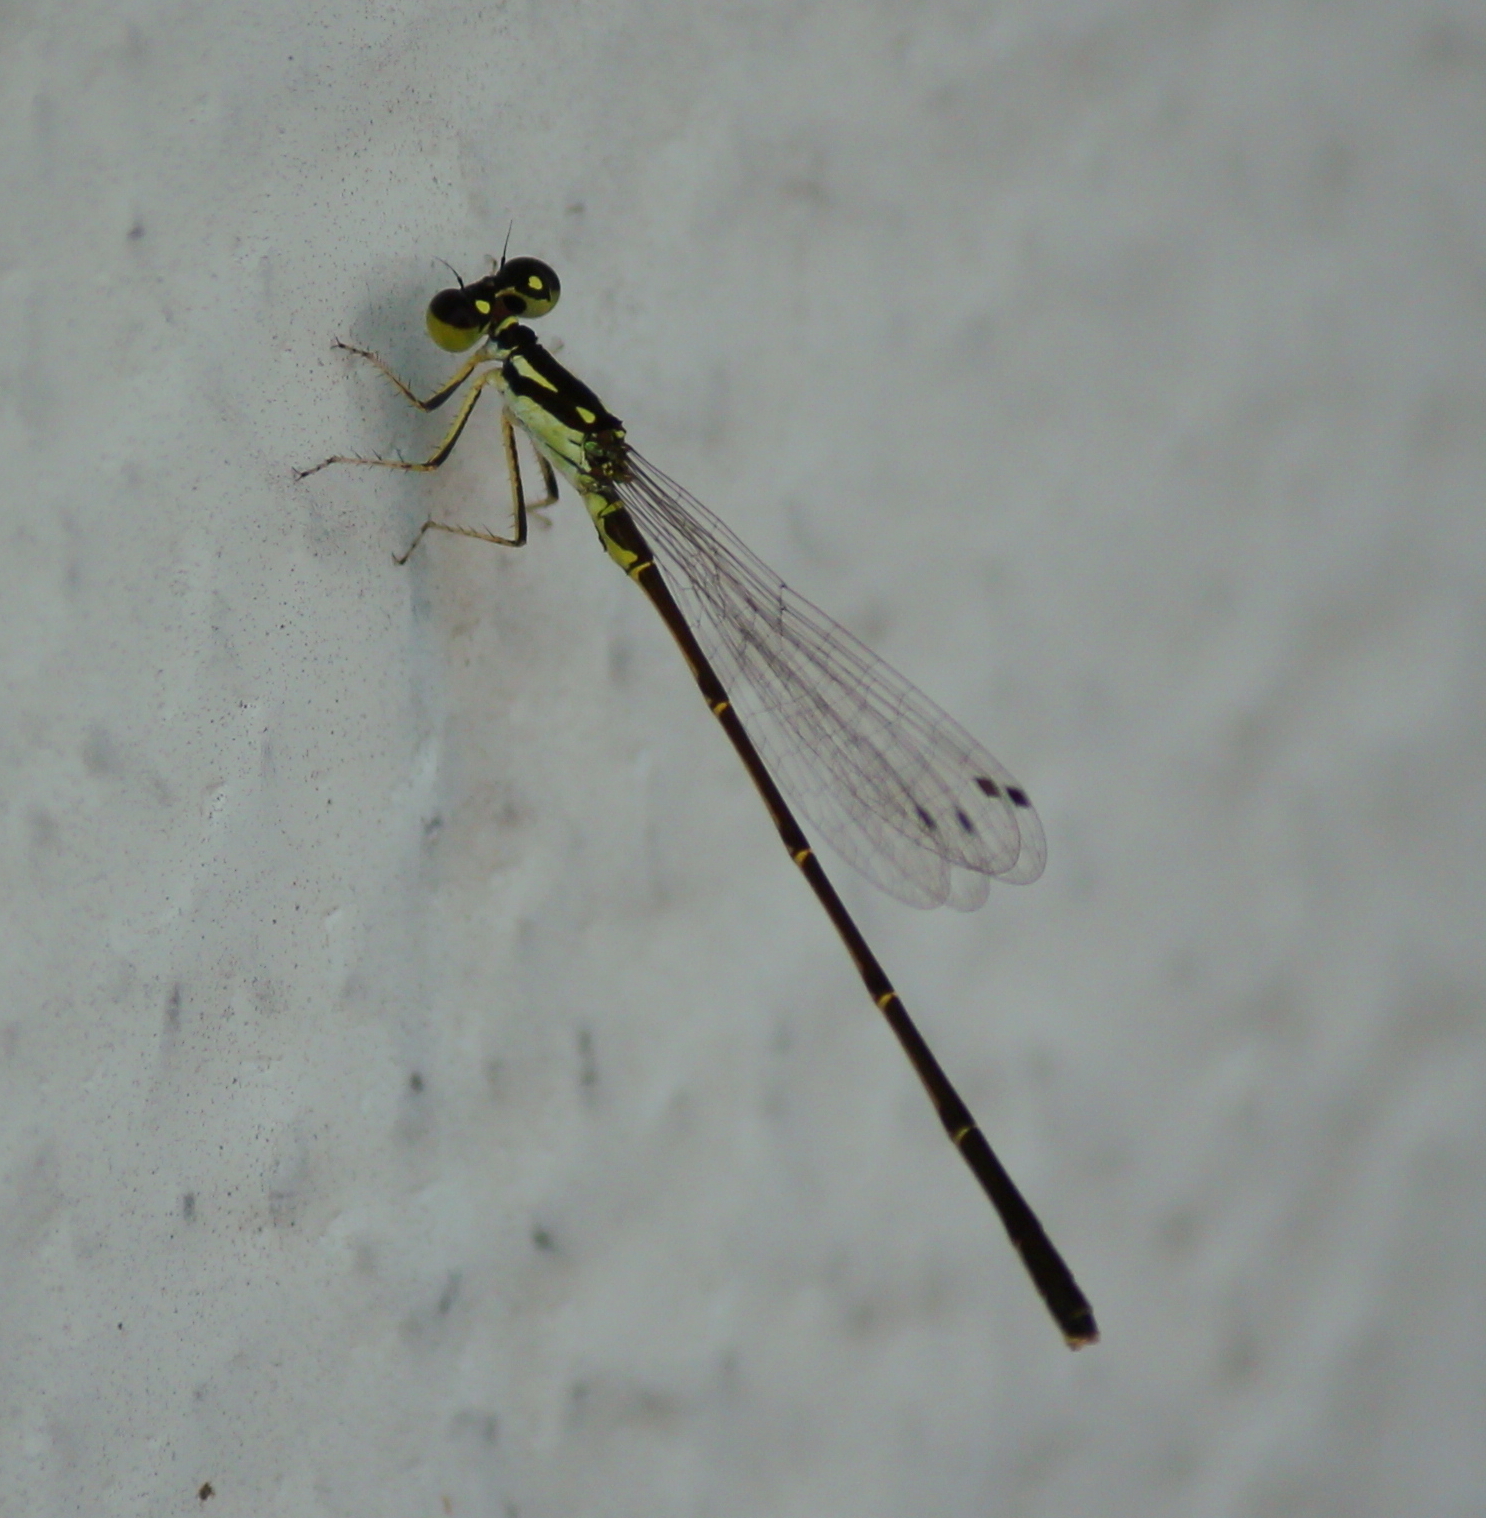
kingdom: Animalia
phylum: Arthropoda
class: Insecta
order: Odonata
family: Coenagrionidae
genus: Ischnura
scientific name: Ischnura posita
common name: Fragile forktail
